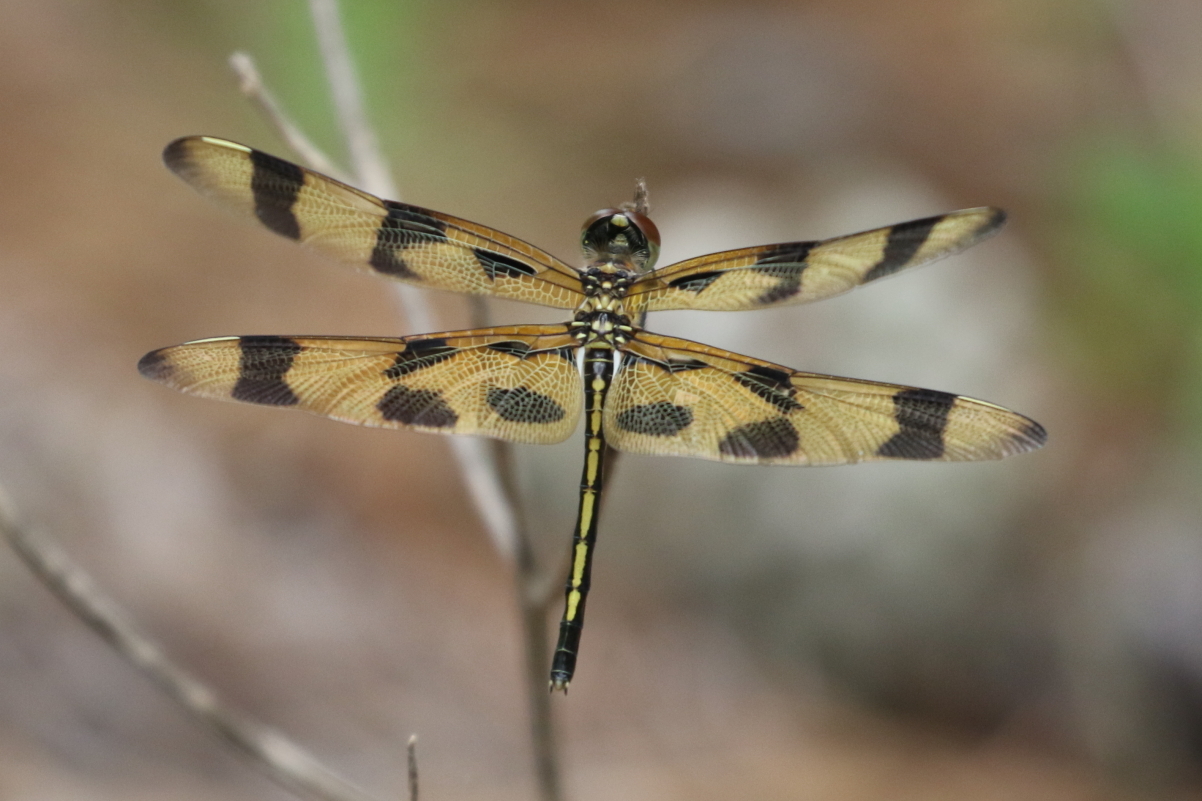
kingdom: Animalia
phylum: Arthropoda
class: Insecta
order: Odonata
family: Libellulidae
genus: Celithemis
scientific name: Celithemis eponina
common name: Halloween pennant
